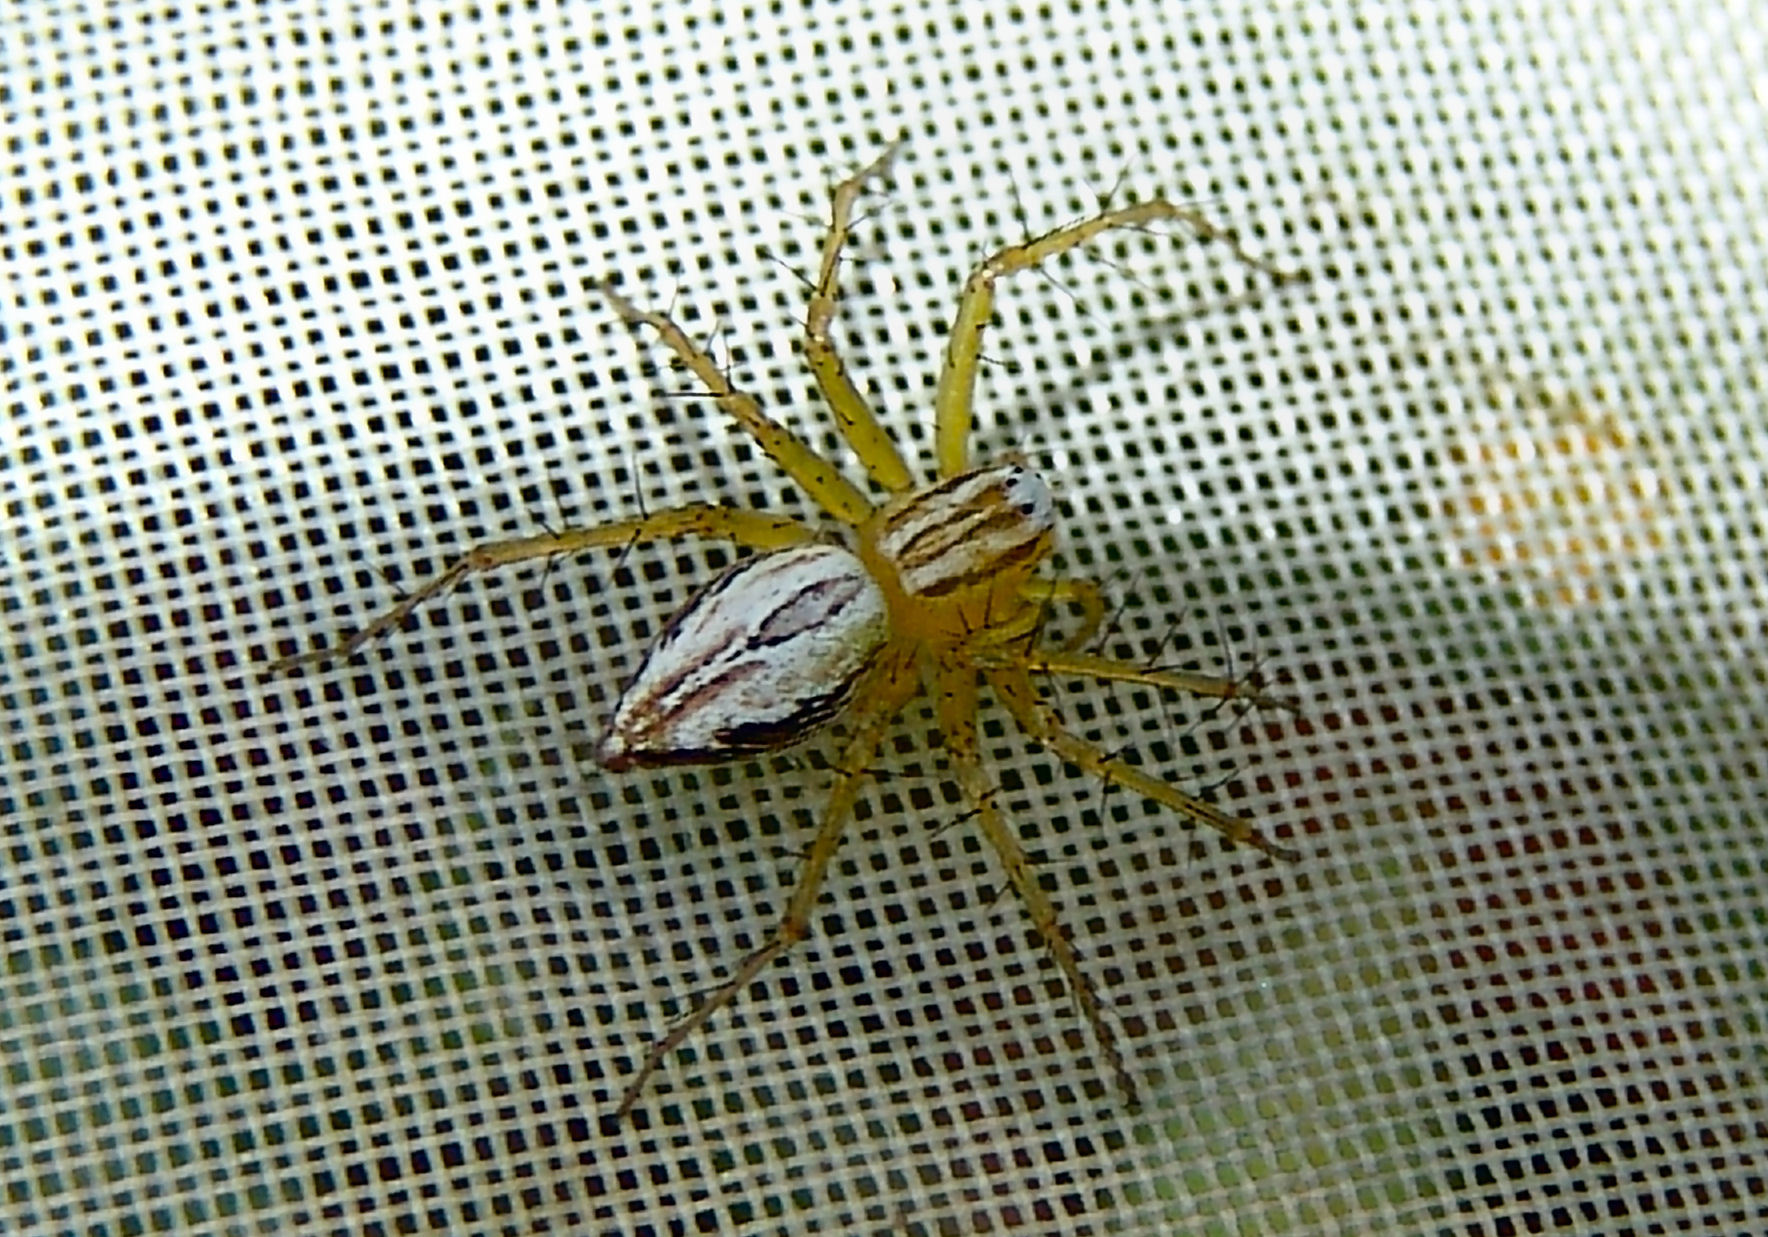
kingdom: Animalia
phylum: Arthropoda
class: Arachnida
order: Araneae
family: Oxyopidae
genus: Oxyopes
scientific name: Oxyopes salticus
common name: Lynx spiders
